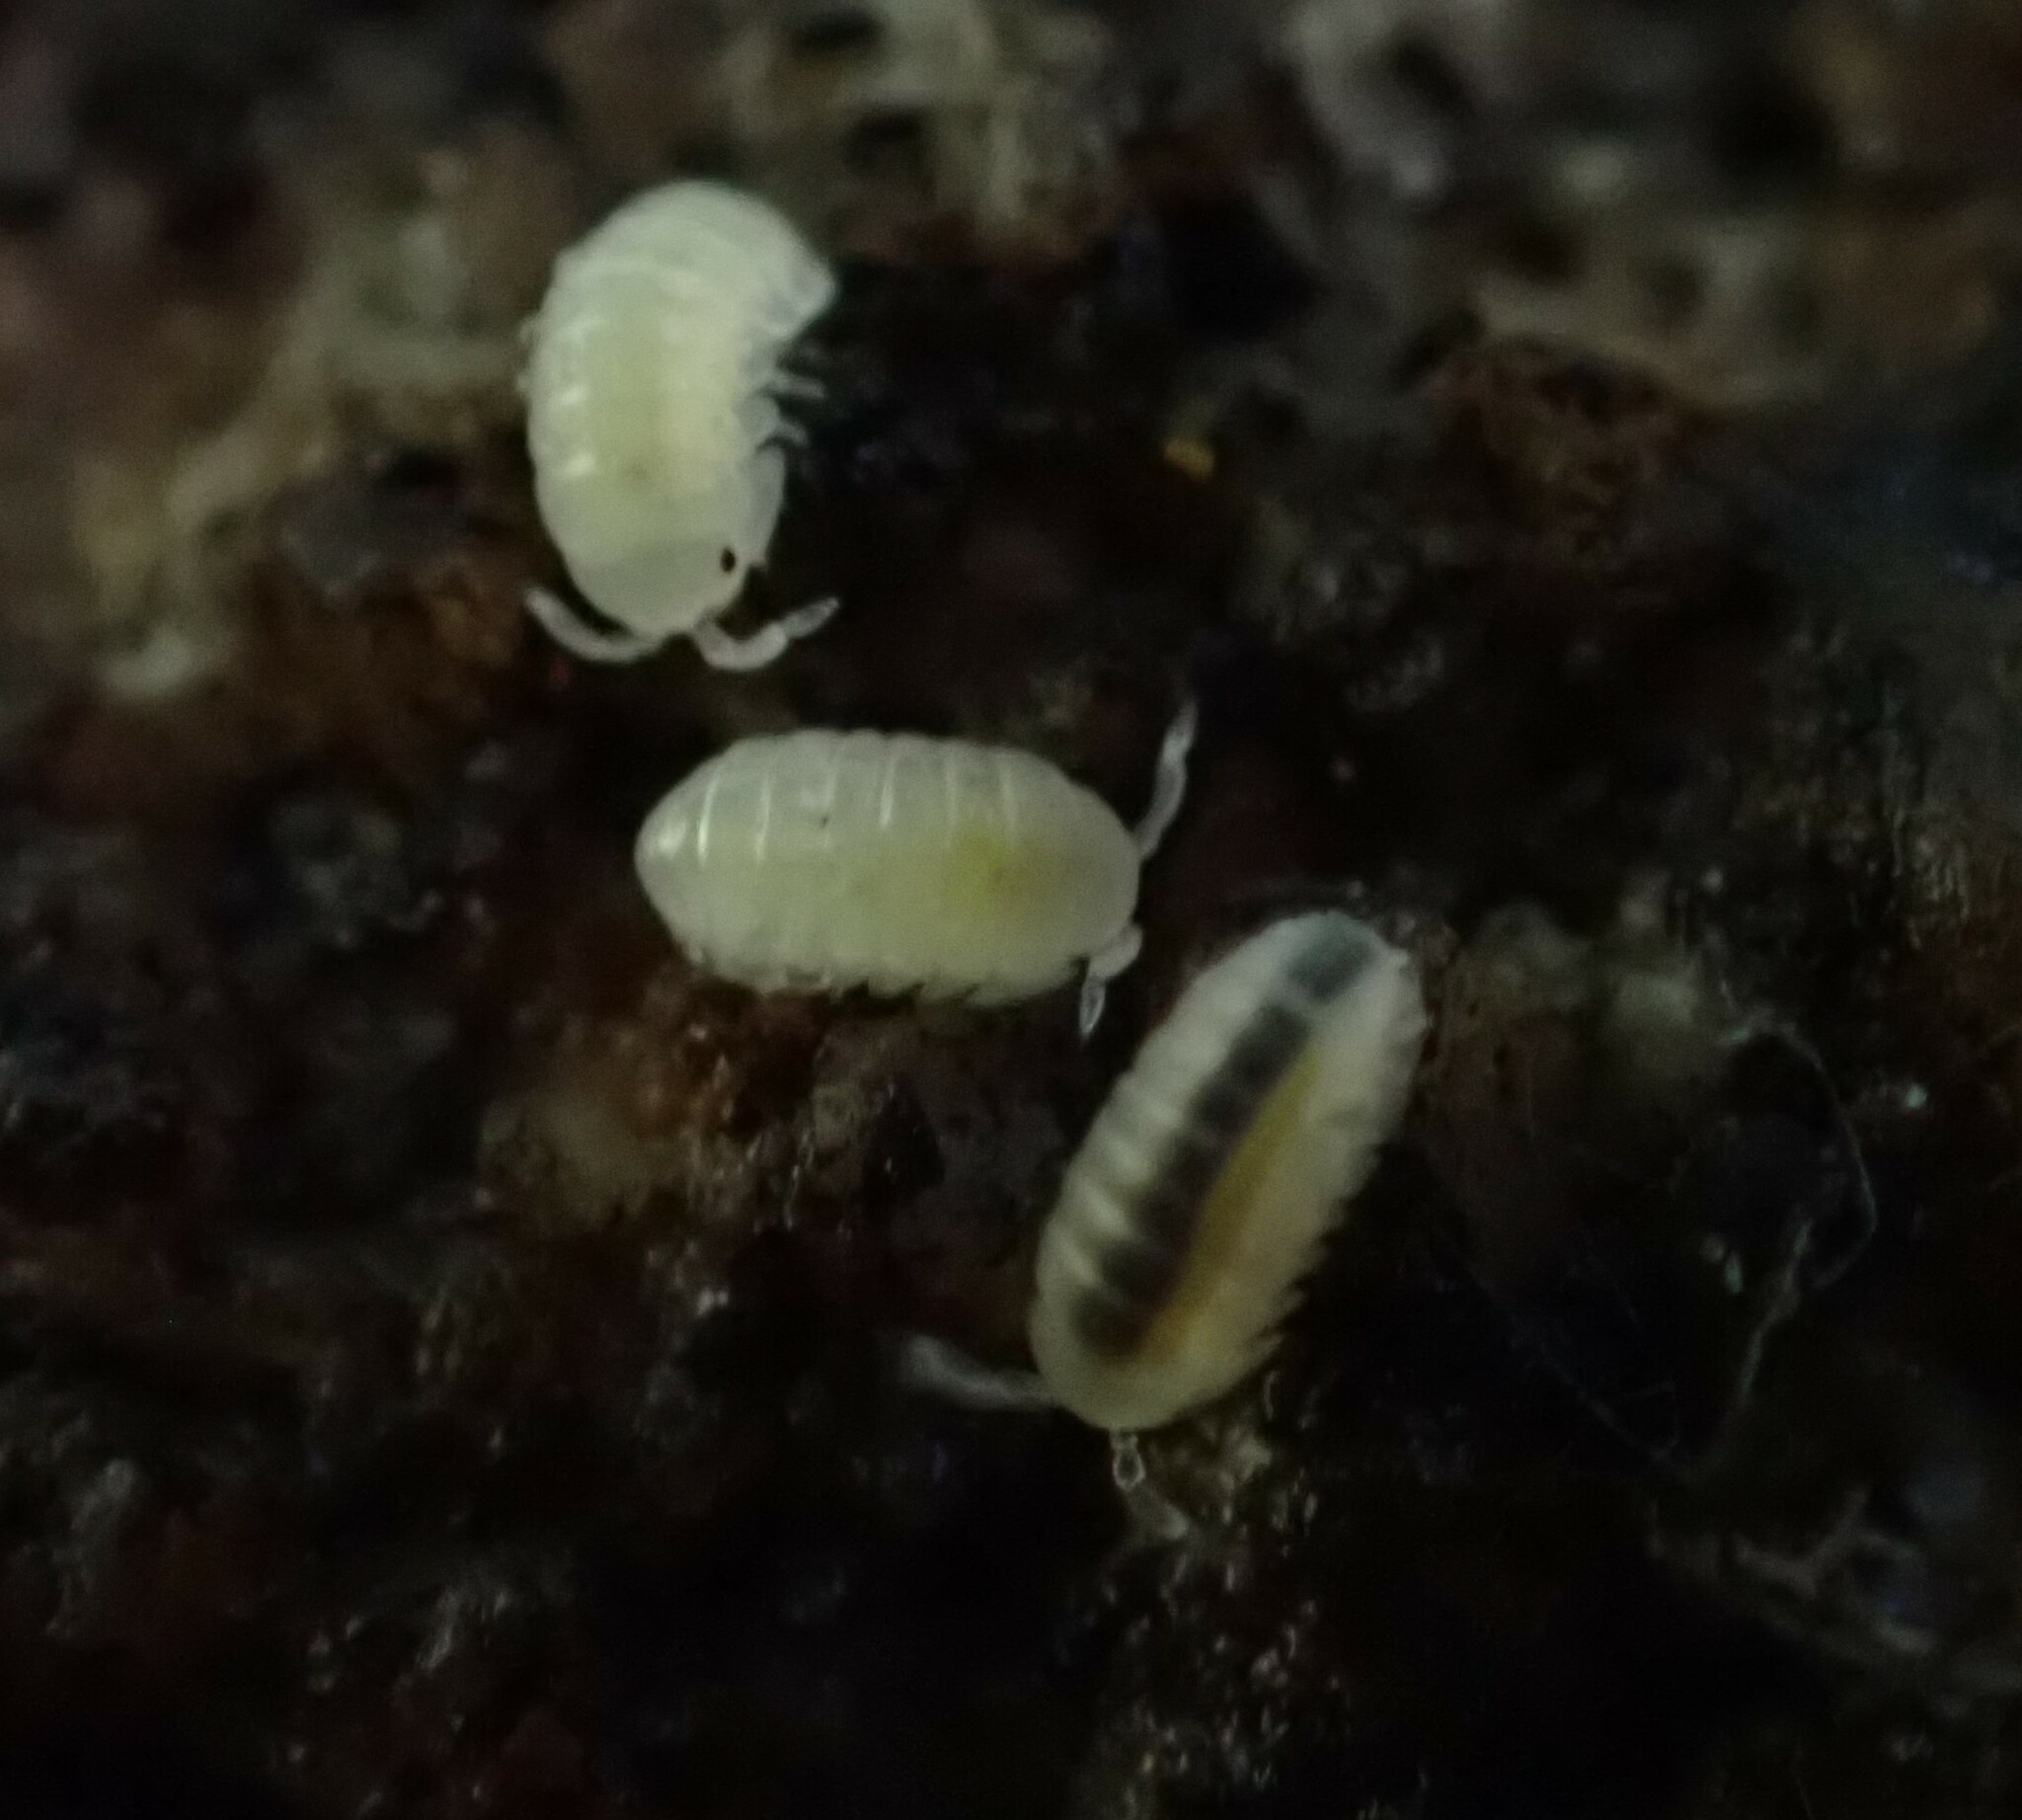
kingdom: Animalia
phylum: Arthropoda
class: Malacostraca
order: Isopoda
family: Armadillidiidae
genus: Armadillidium
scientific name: Armadillidium vulgare
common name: Common pill woodlouse
